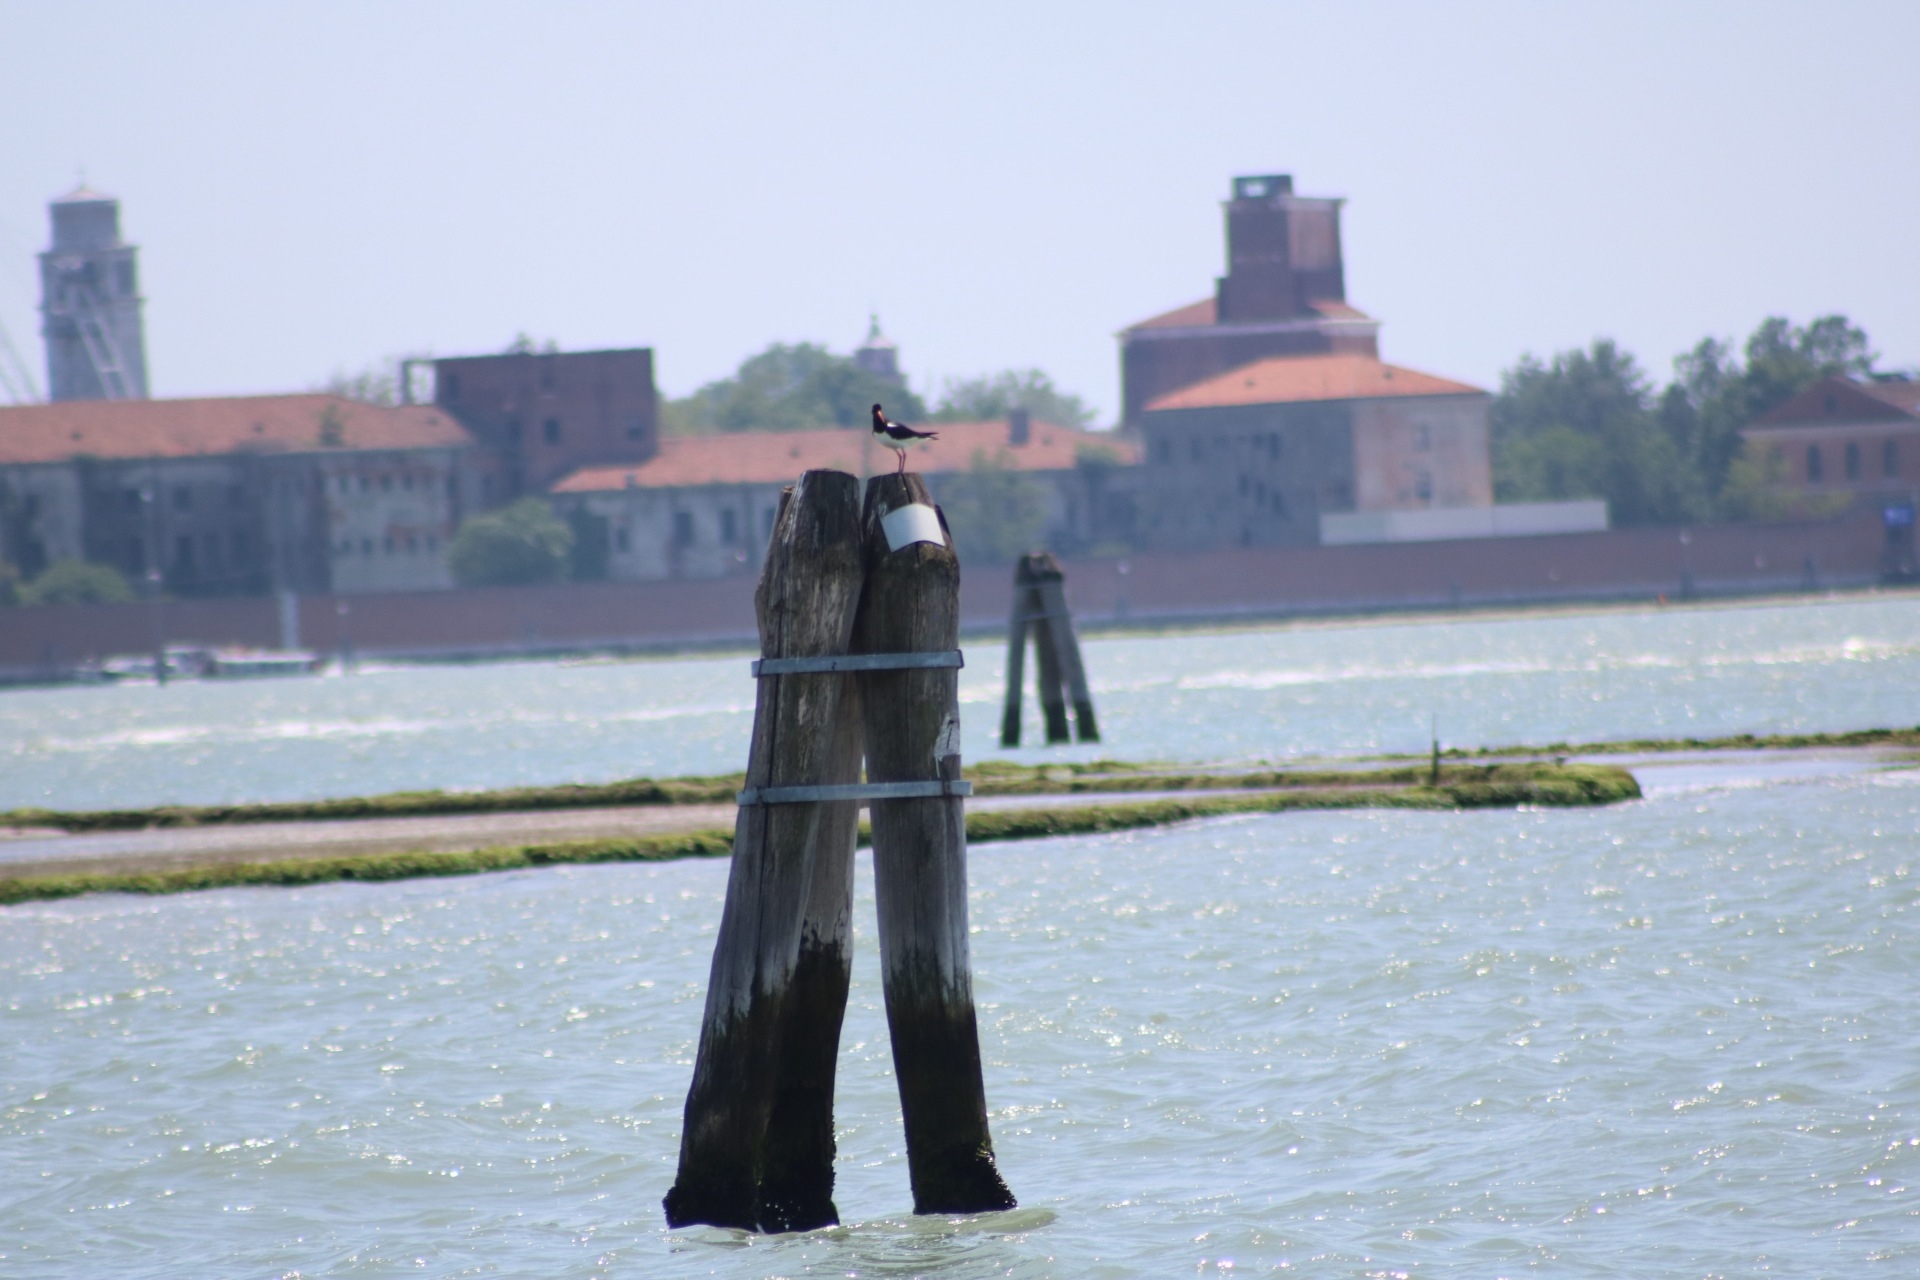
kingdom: Animalia
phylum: Chordata
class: Aves
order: Charadriiformes
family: Haematopodidae
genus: Haematopus
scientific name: Haematopus ostralegus
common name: Eurasian oystercatcher
